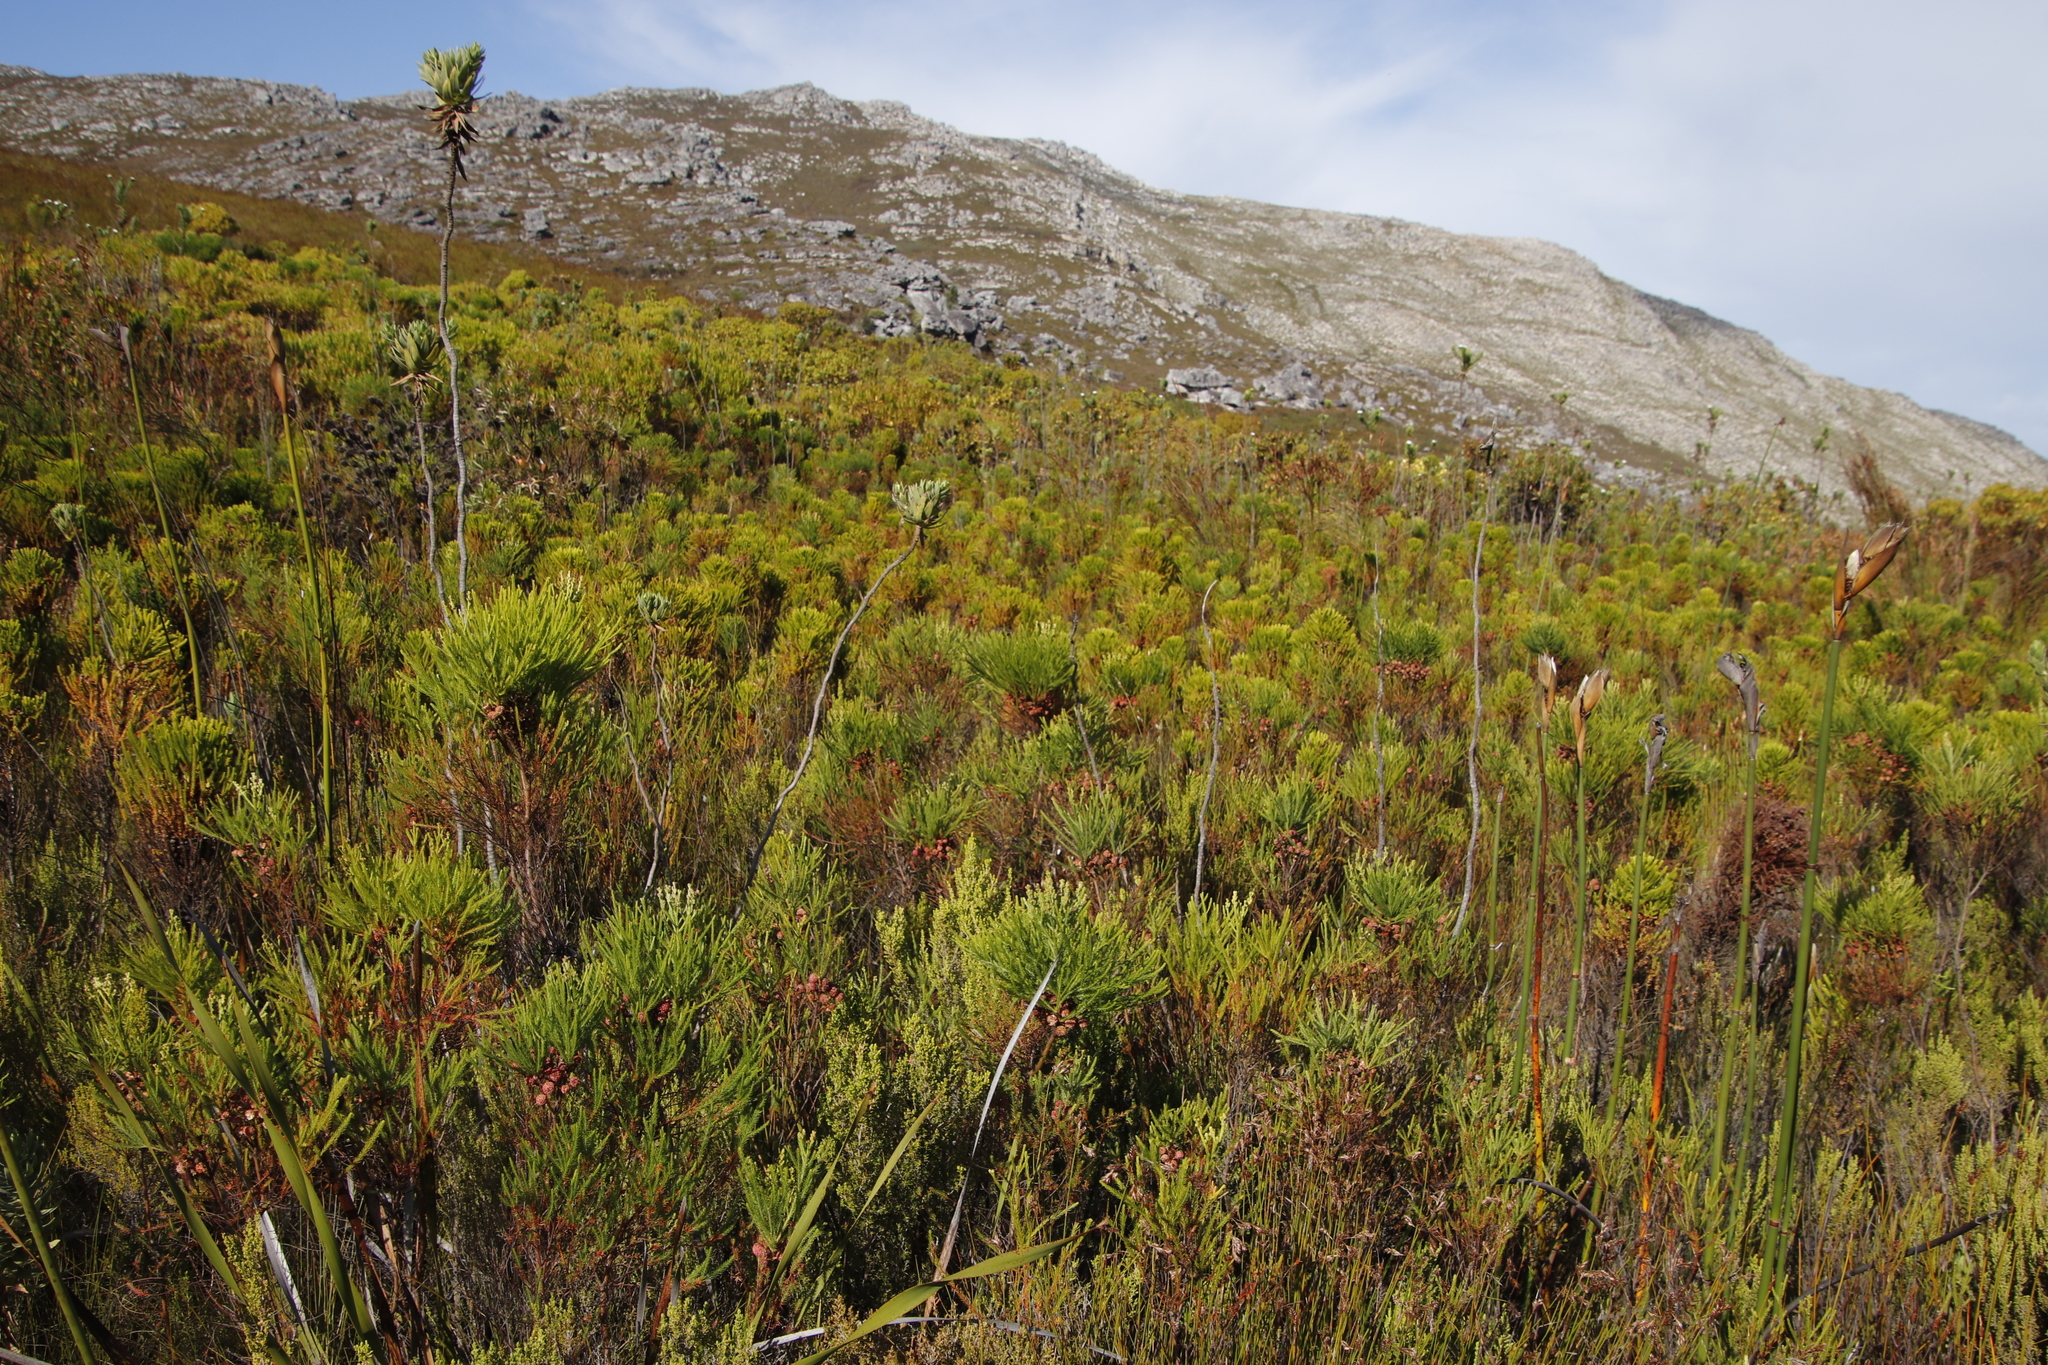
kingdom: Plantae
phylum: Tracheophyta
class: Magnoliopsida
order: Bruniales
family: Bruniaceae
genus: Berzelia
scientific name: Berzelia alopecurioides
